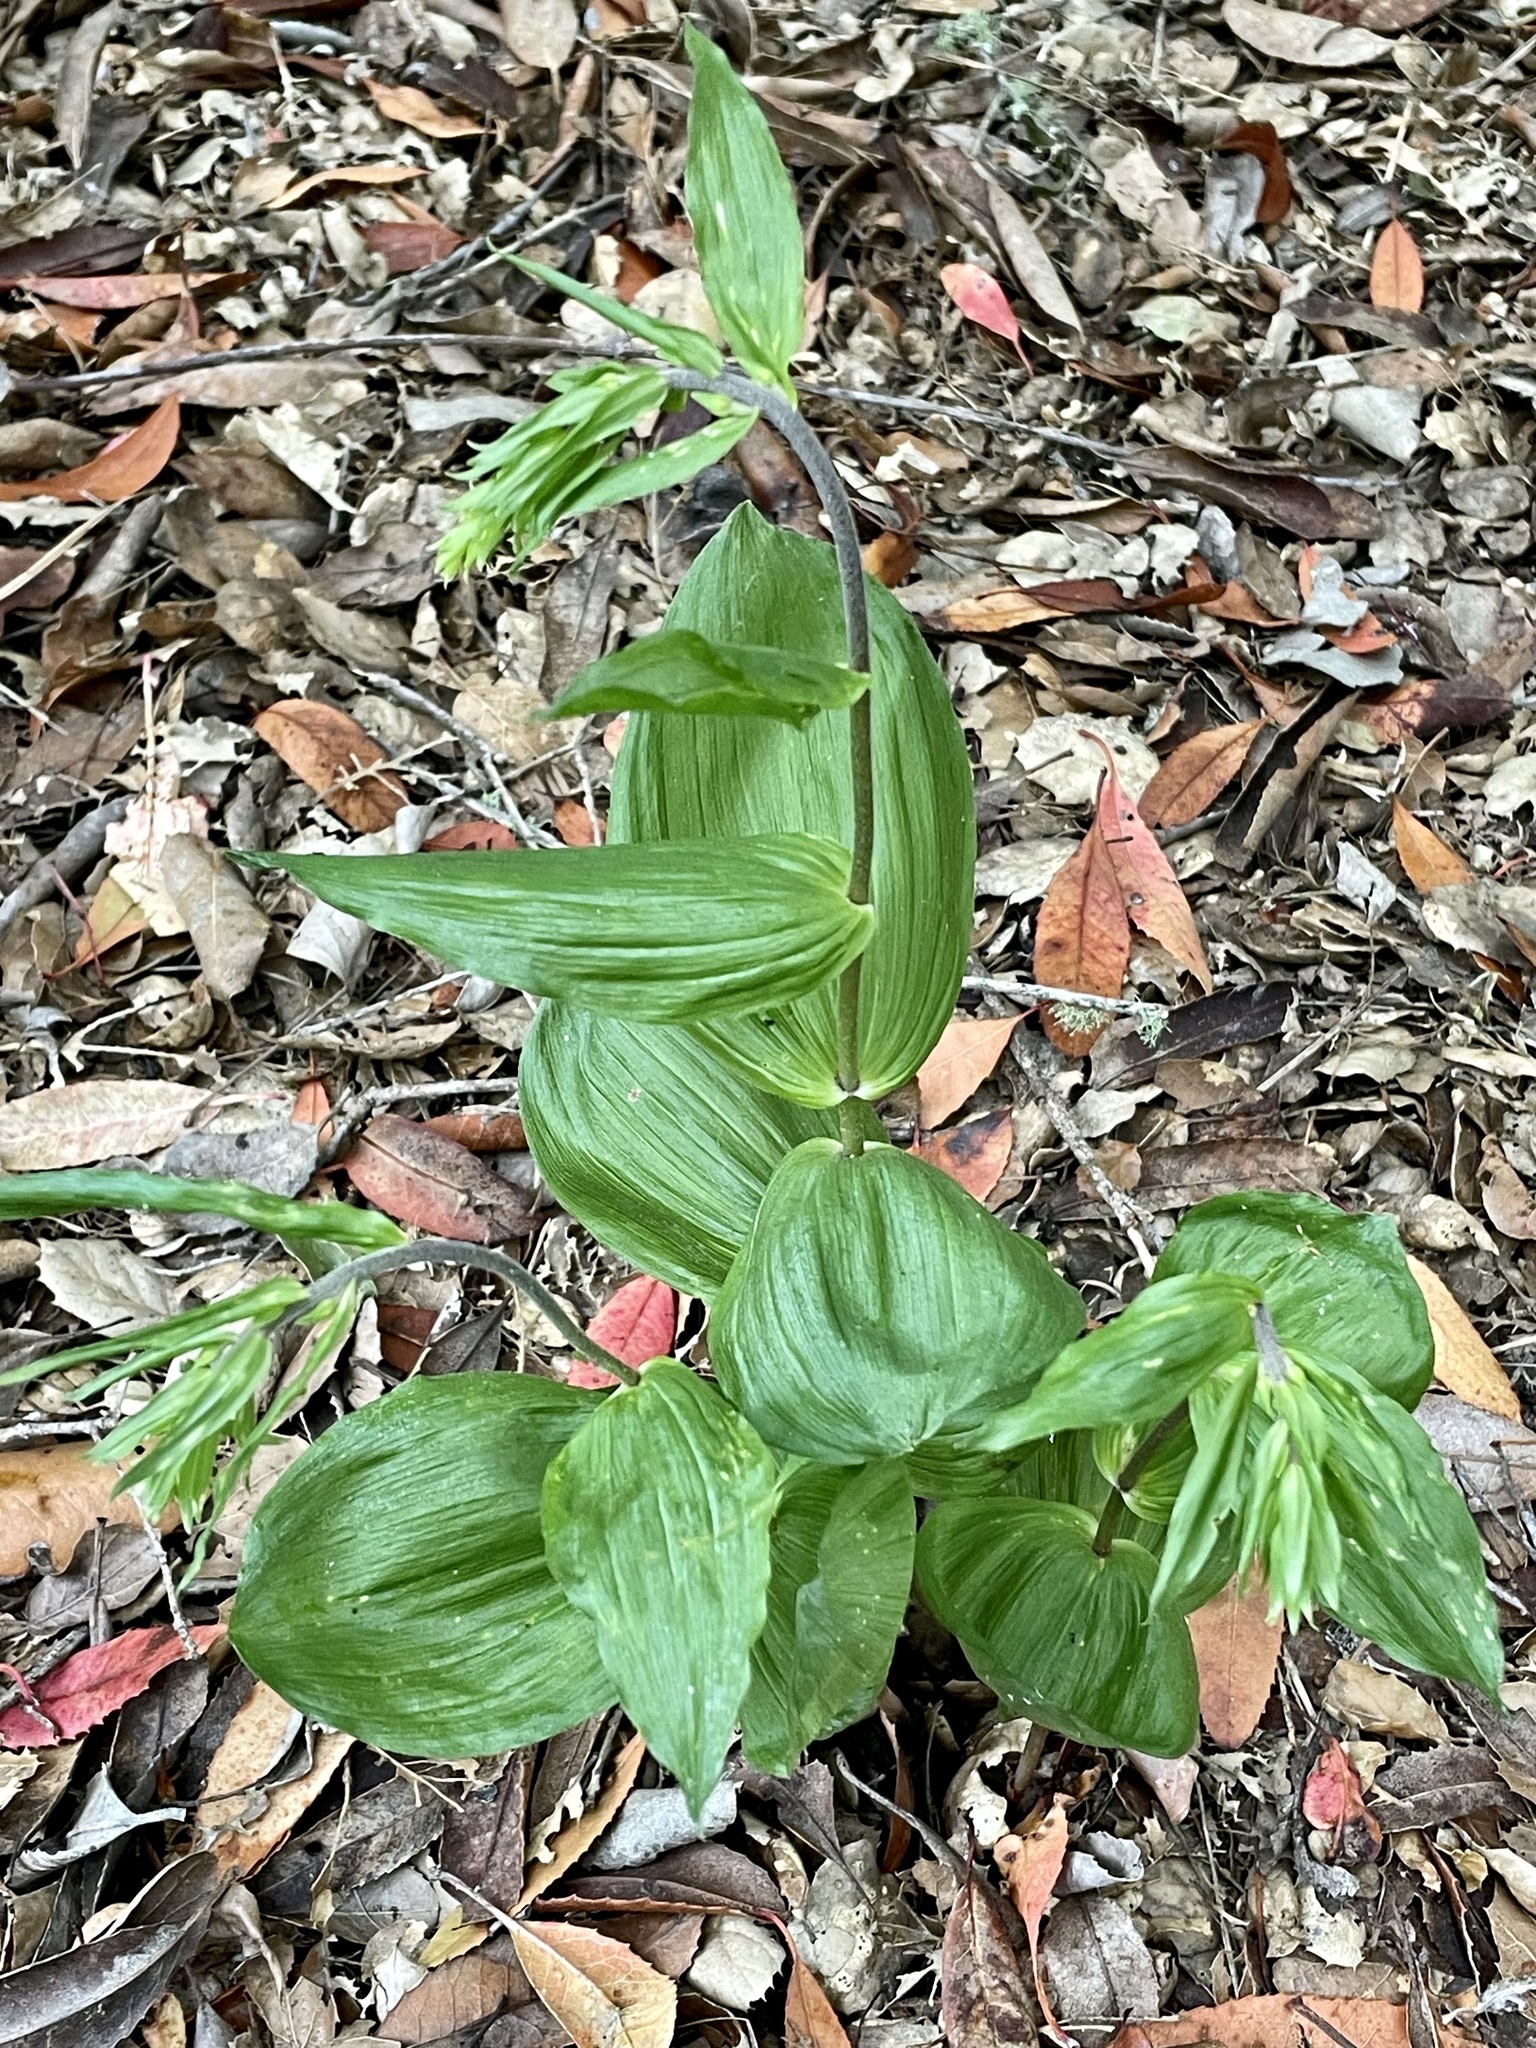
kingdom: Plantae
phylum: Tracheophyta
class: Liliopsida
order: Asparagales
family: Orchidaceae
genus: Epipactis
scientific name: Epipactis helleborine
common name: Broad-leaved helleborine
